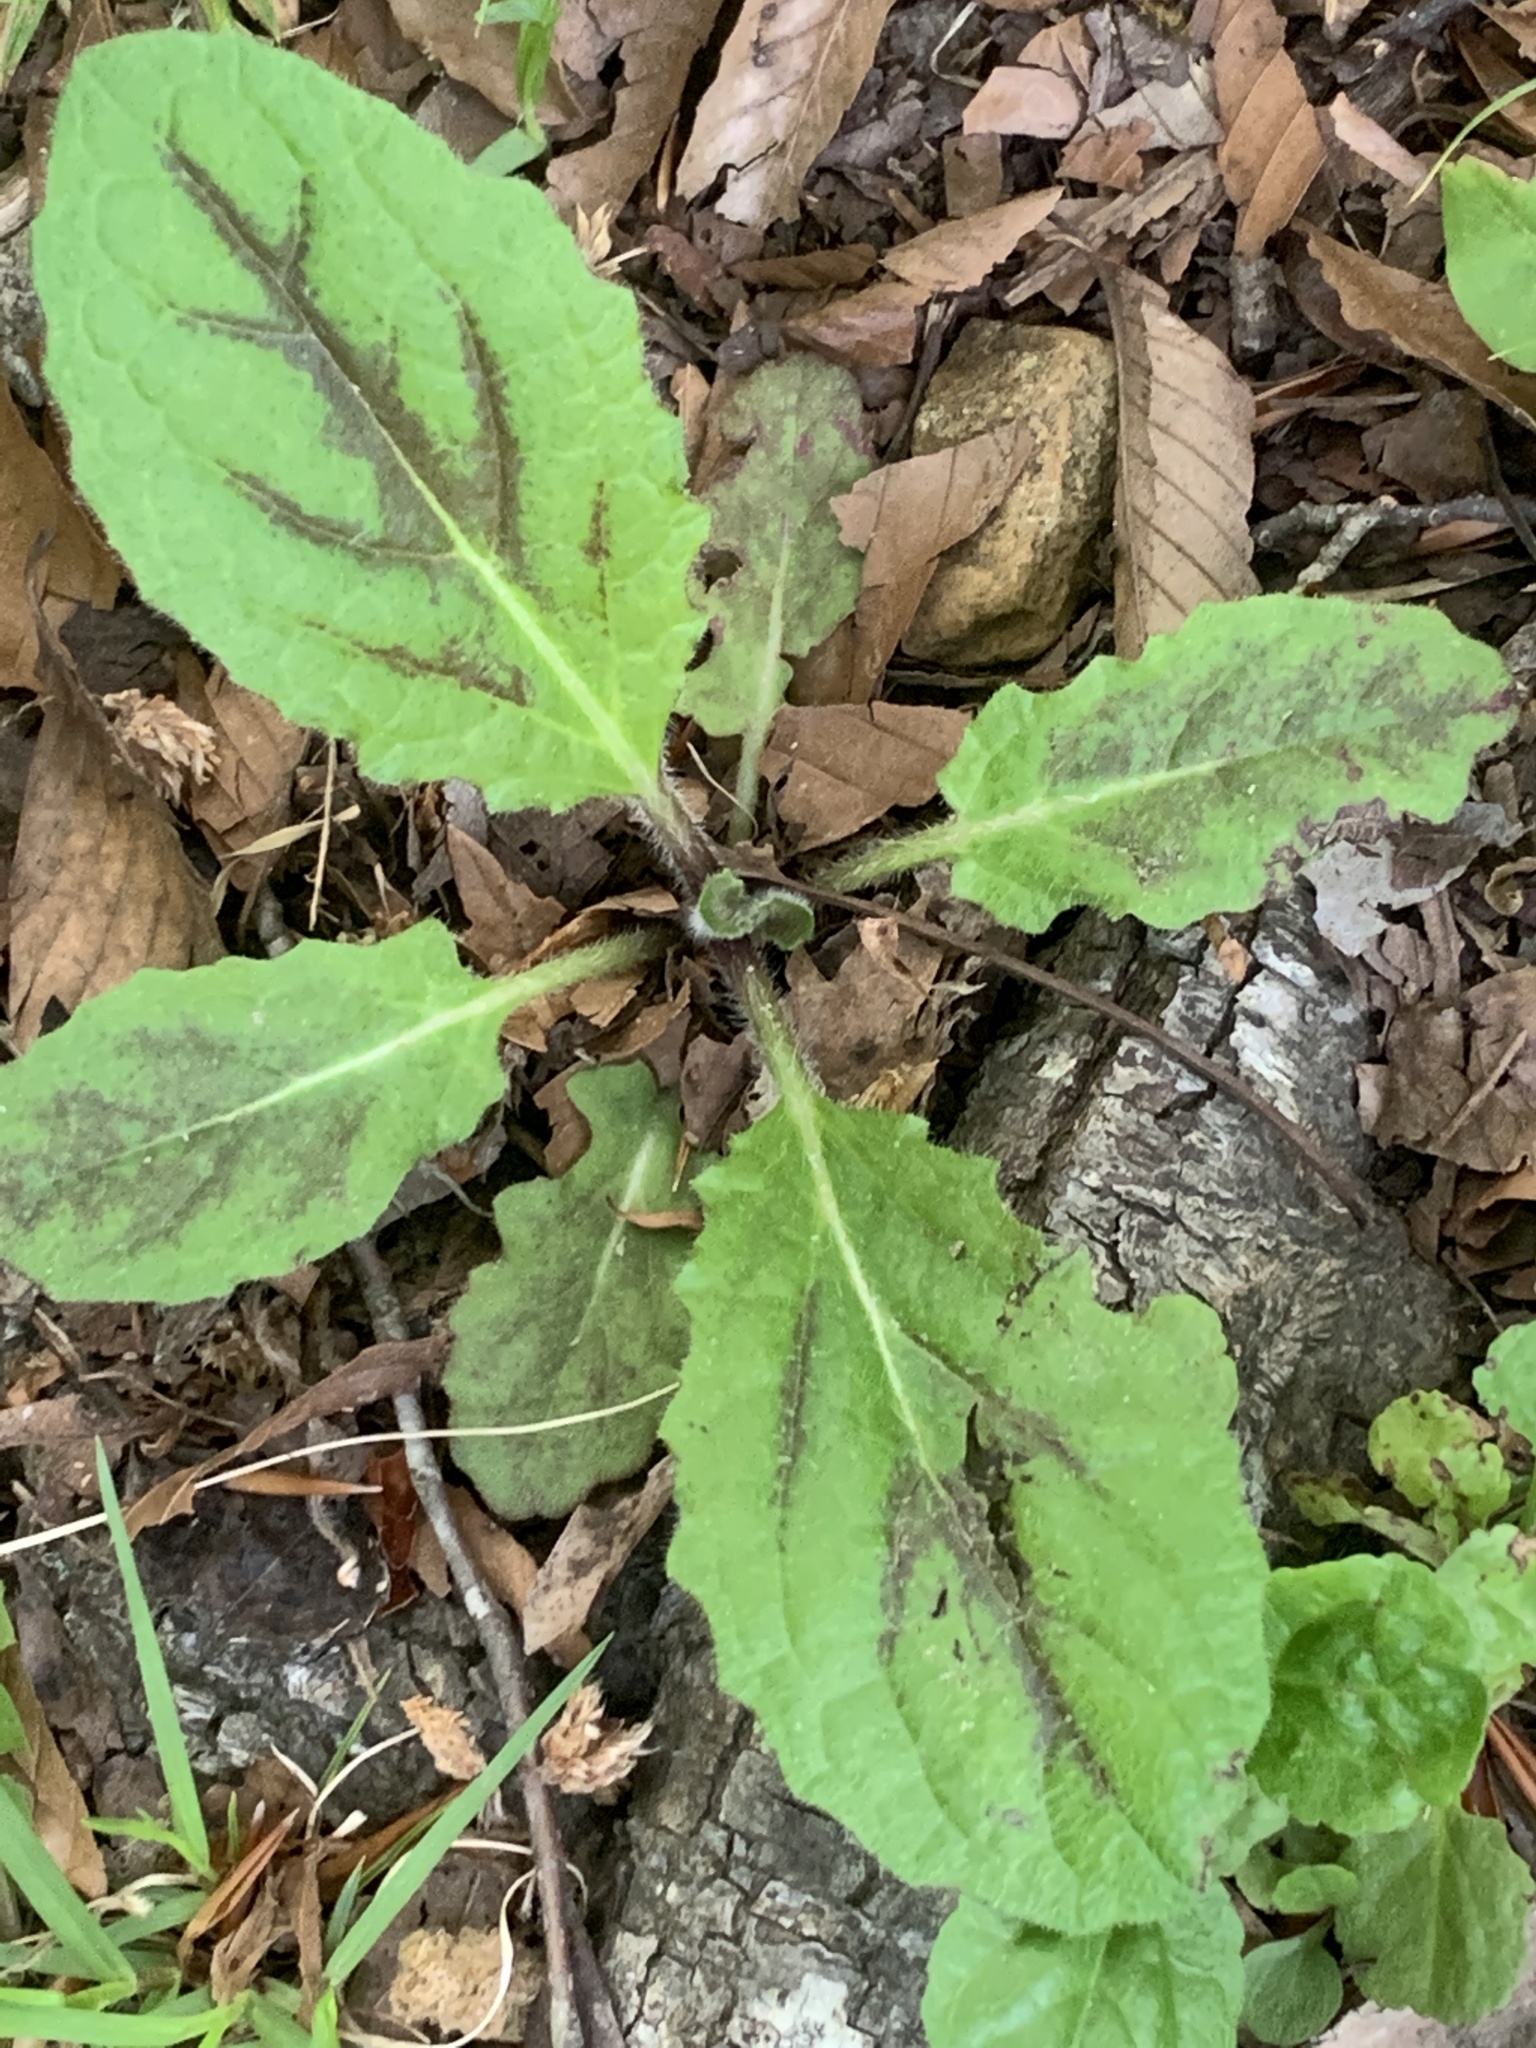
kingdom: Plantae
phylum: Tracheophyta
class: Magnoliopsida
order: Lamiales
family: Lamiaceae
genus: Salvia
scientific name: Salvia lyrata
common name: Cancerweed
